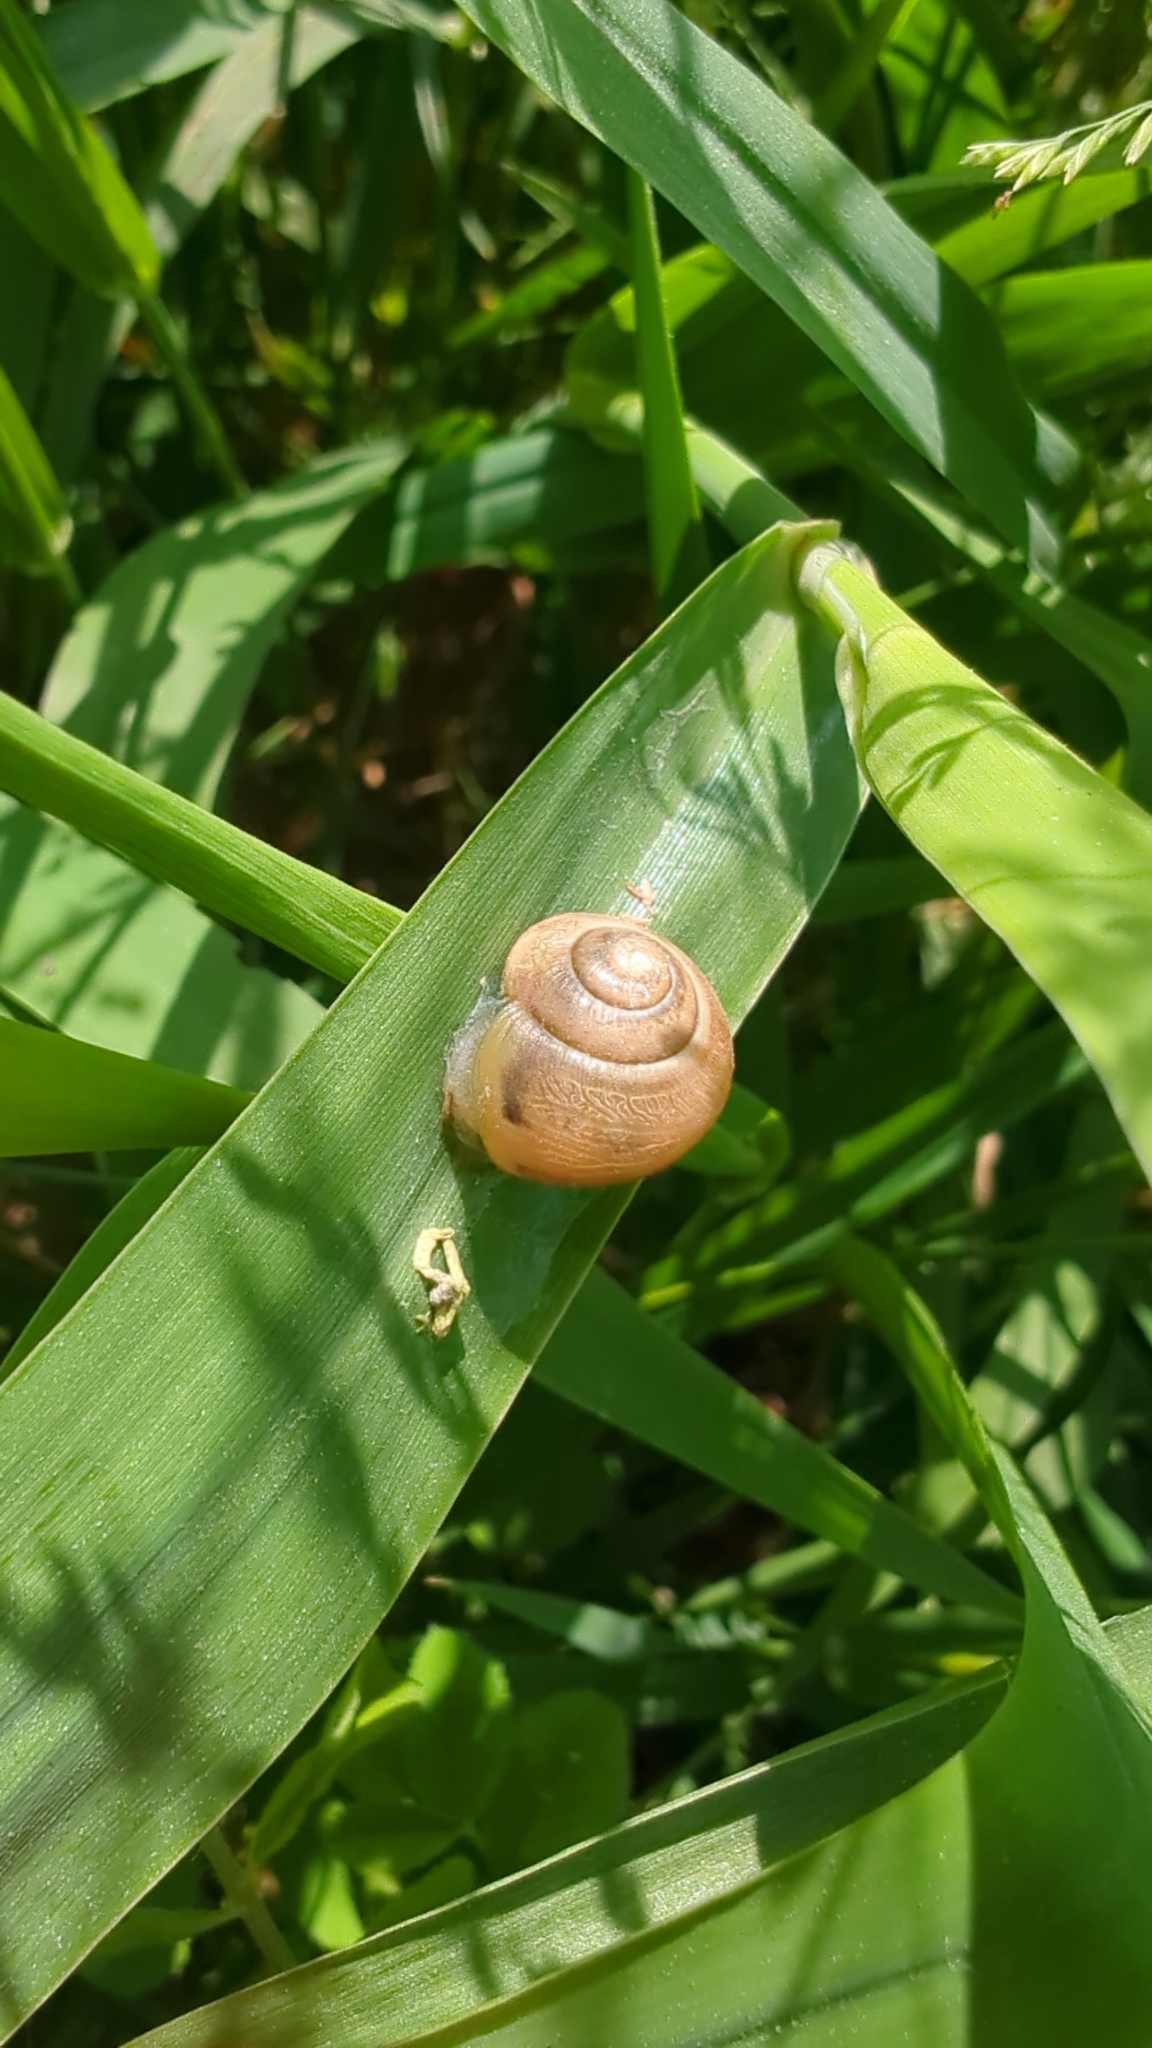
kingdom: Animalia
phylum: Mollusca
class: Gastropoda
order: Stylommatophora
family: Helicidae
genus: Cepaea
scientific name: Cepaea
